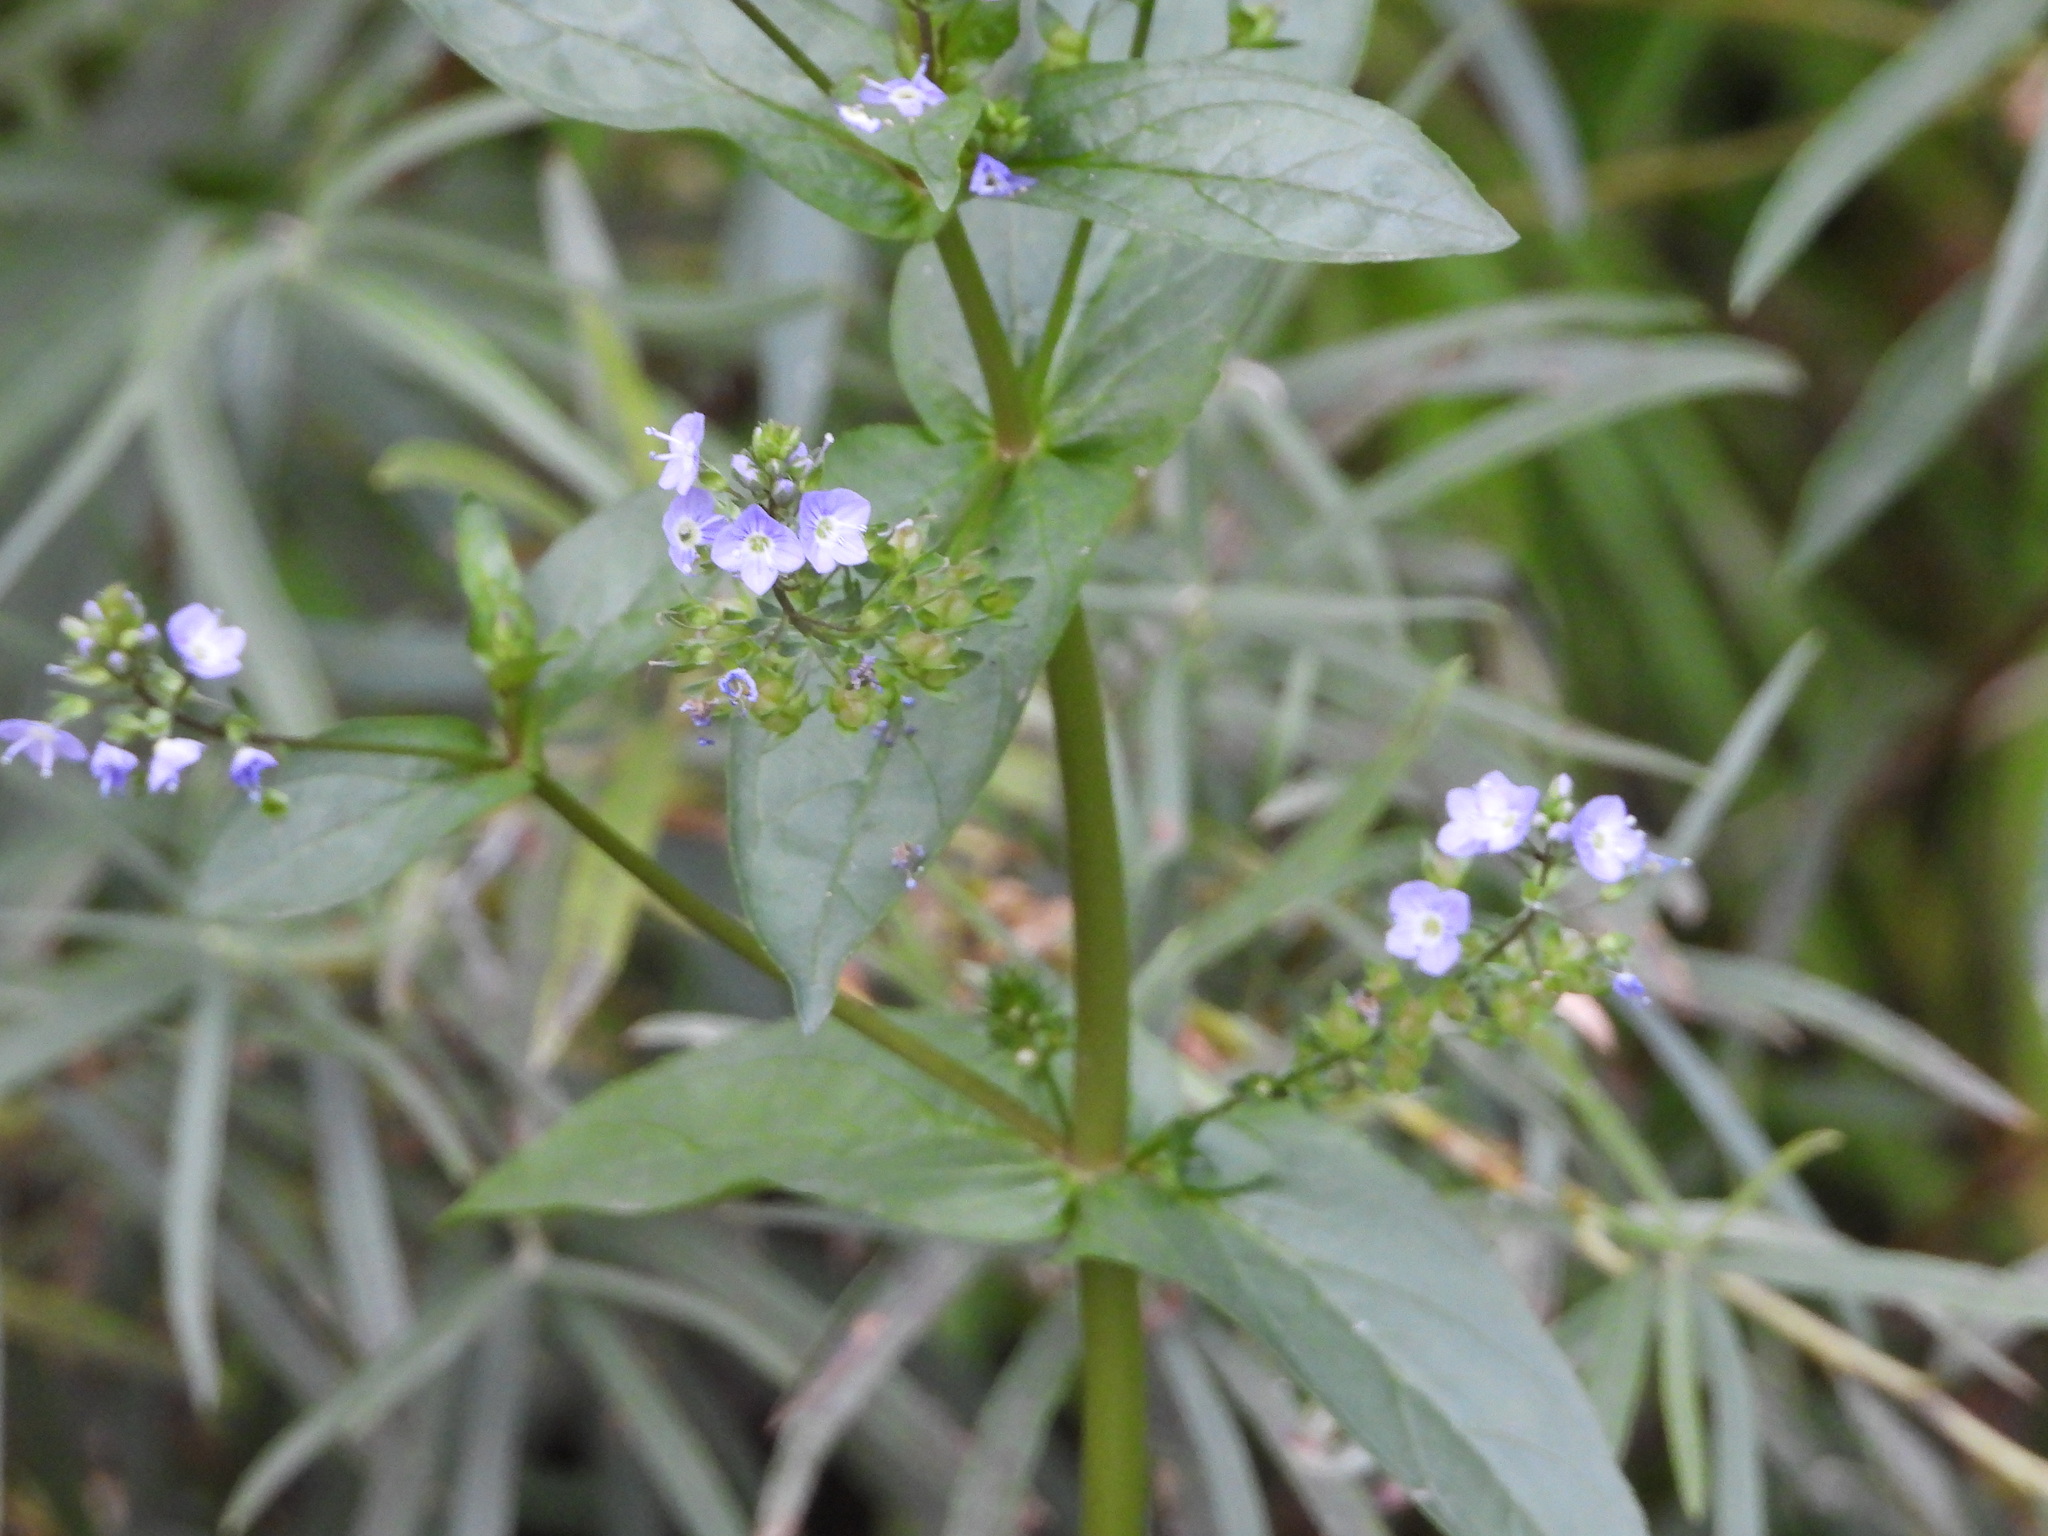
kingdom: Plantae
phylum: Tracheophyta
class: Magnoliopsida
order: Lamiales
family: Plantaginaceae
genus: Veronica
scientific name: Veronica anagallis-aquatica
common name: Water speedwell
